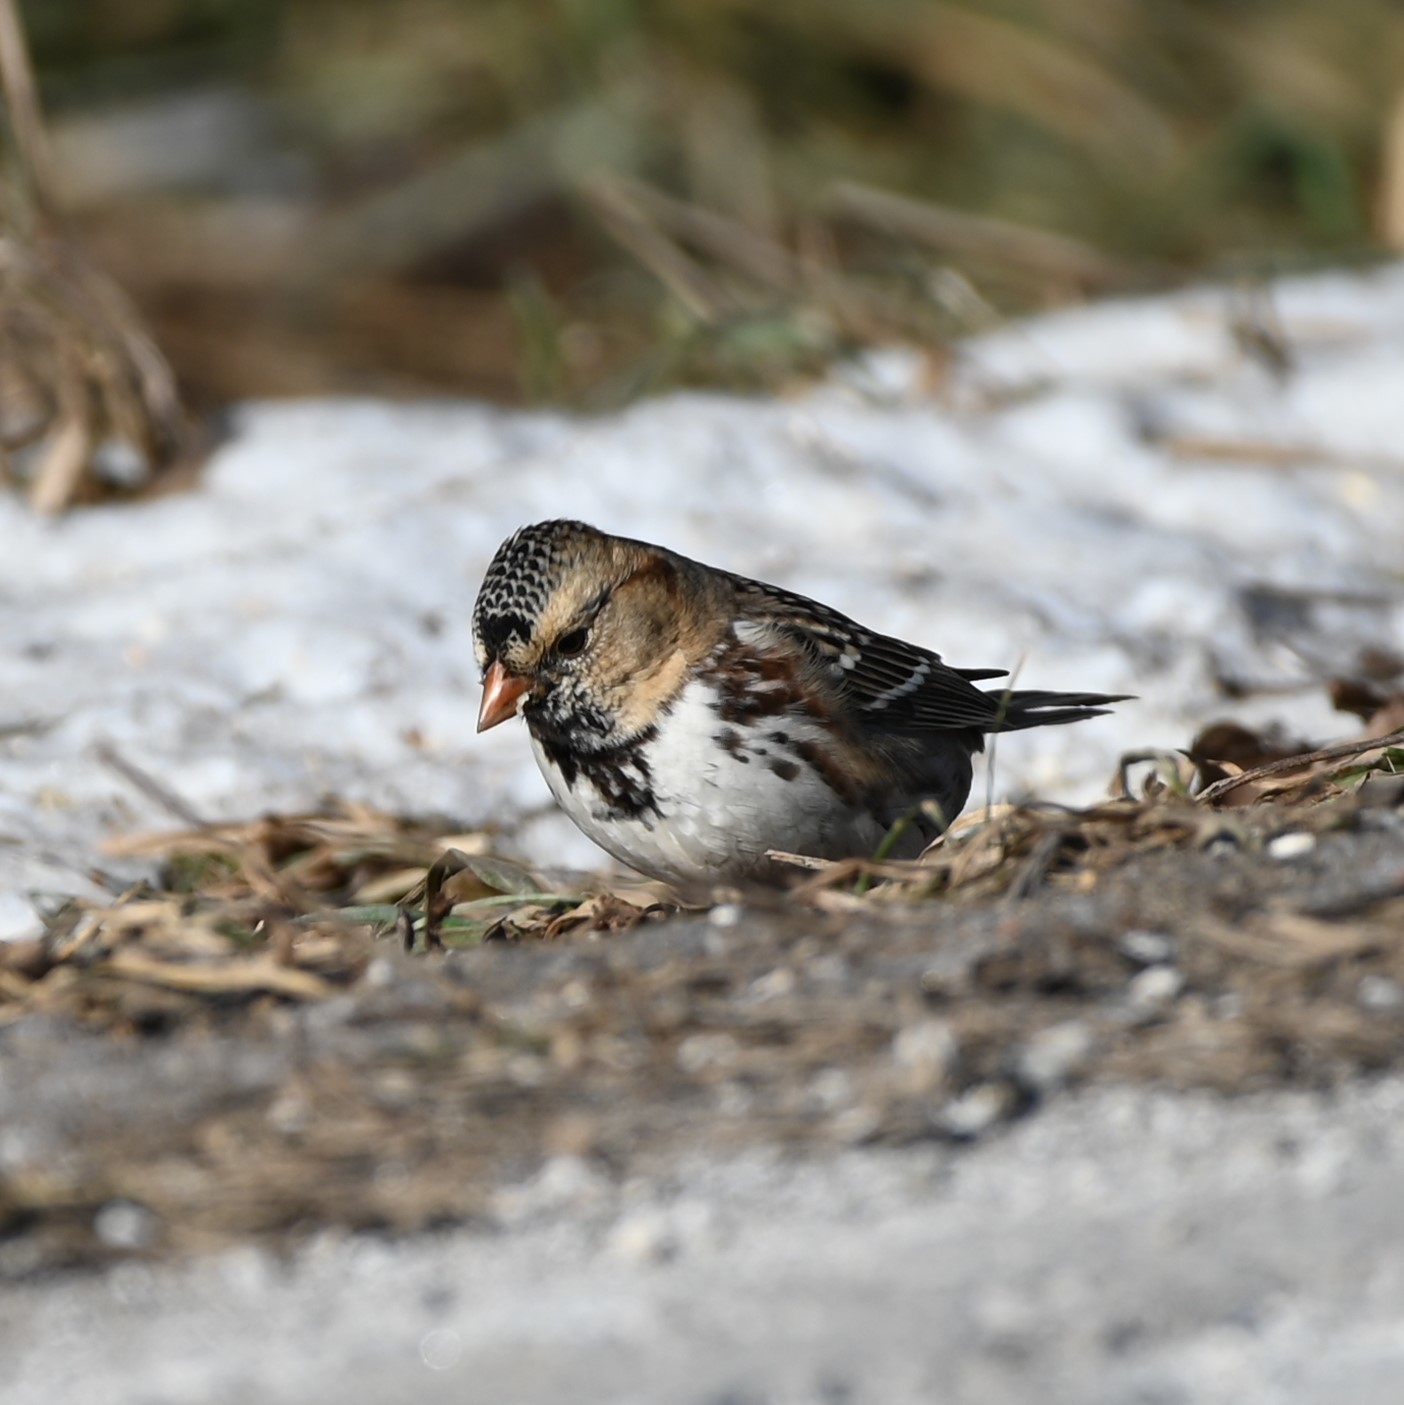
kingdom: Animalia
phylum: Chordata
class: Aves
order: Passeriformes
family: Passerellidae
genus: Zonotrichia
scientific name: Zonotrichia querula
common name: Harris's sparrow
